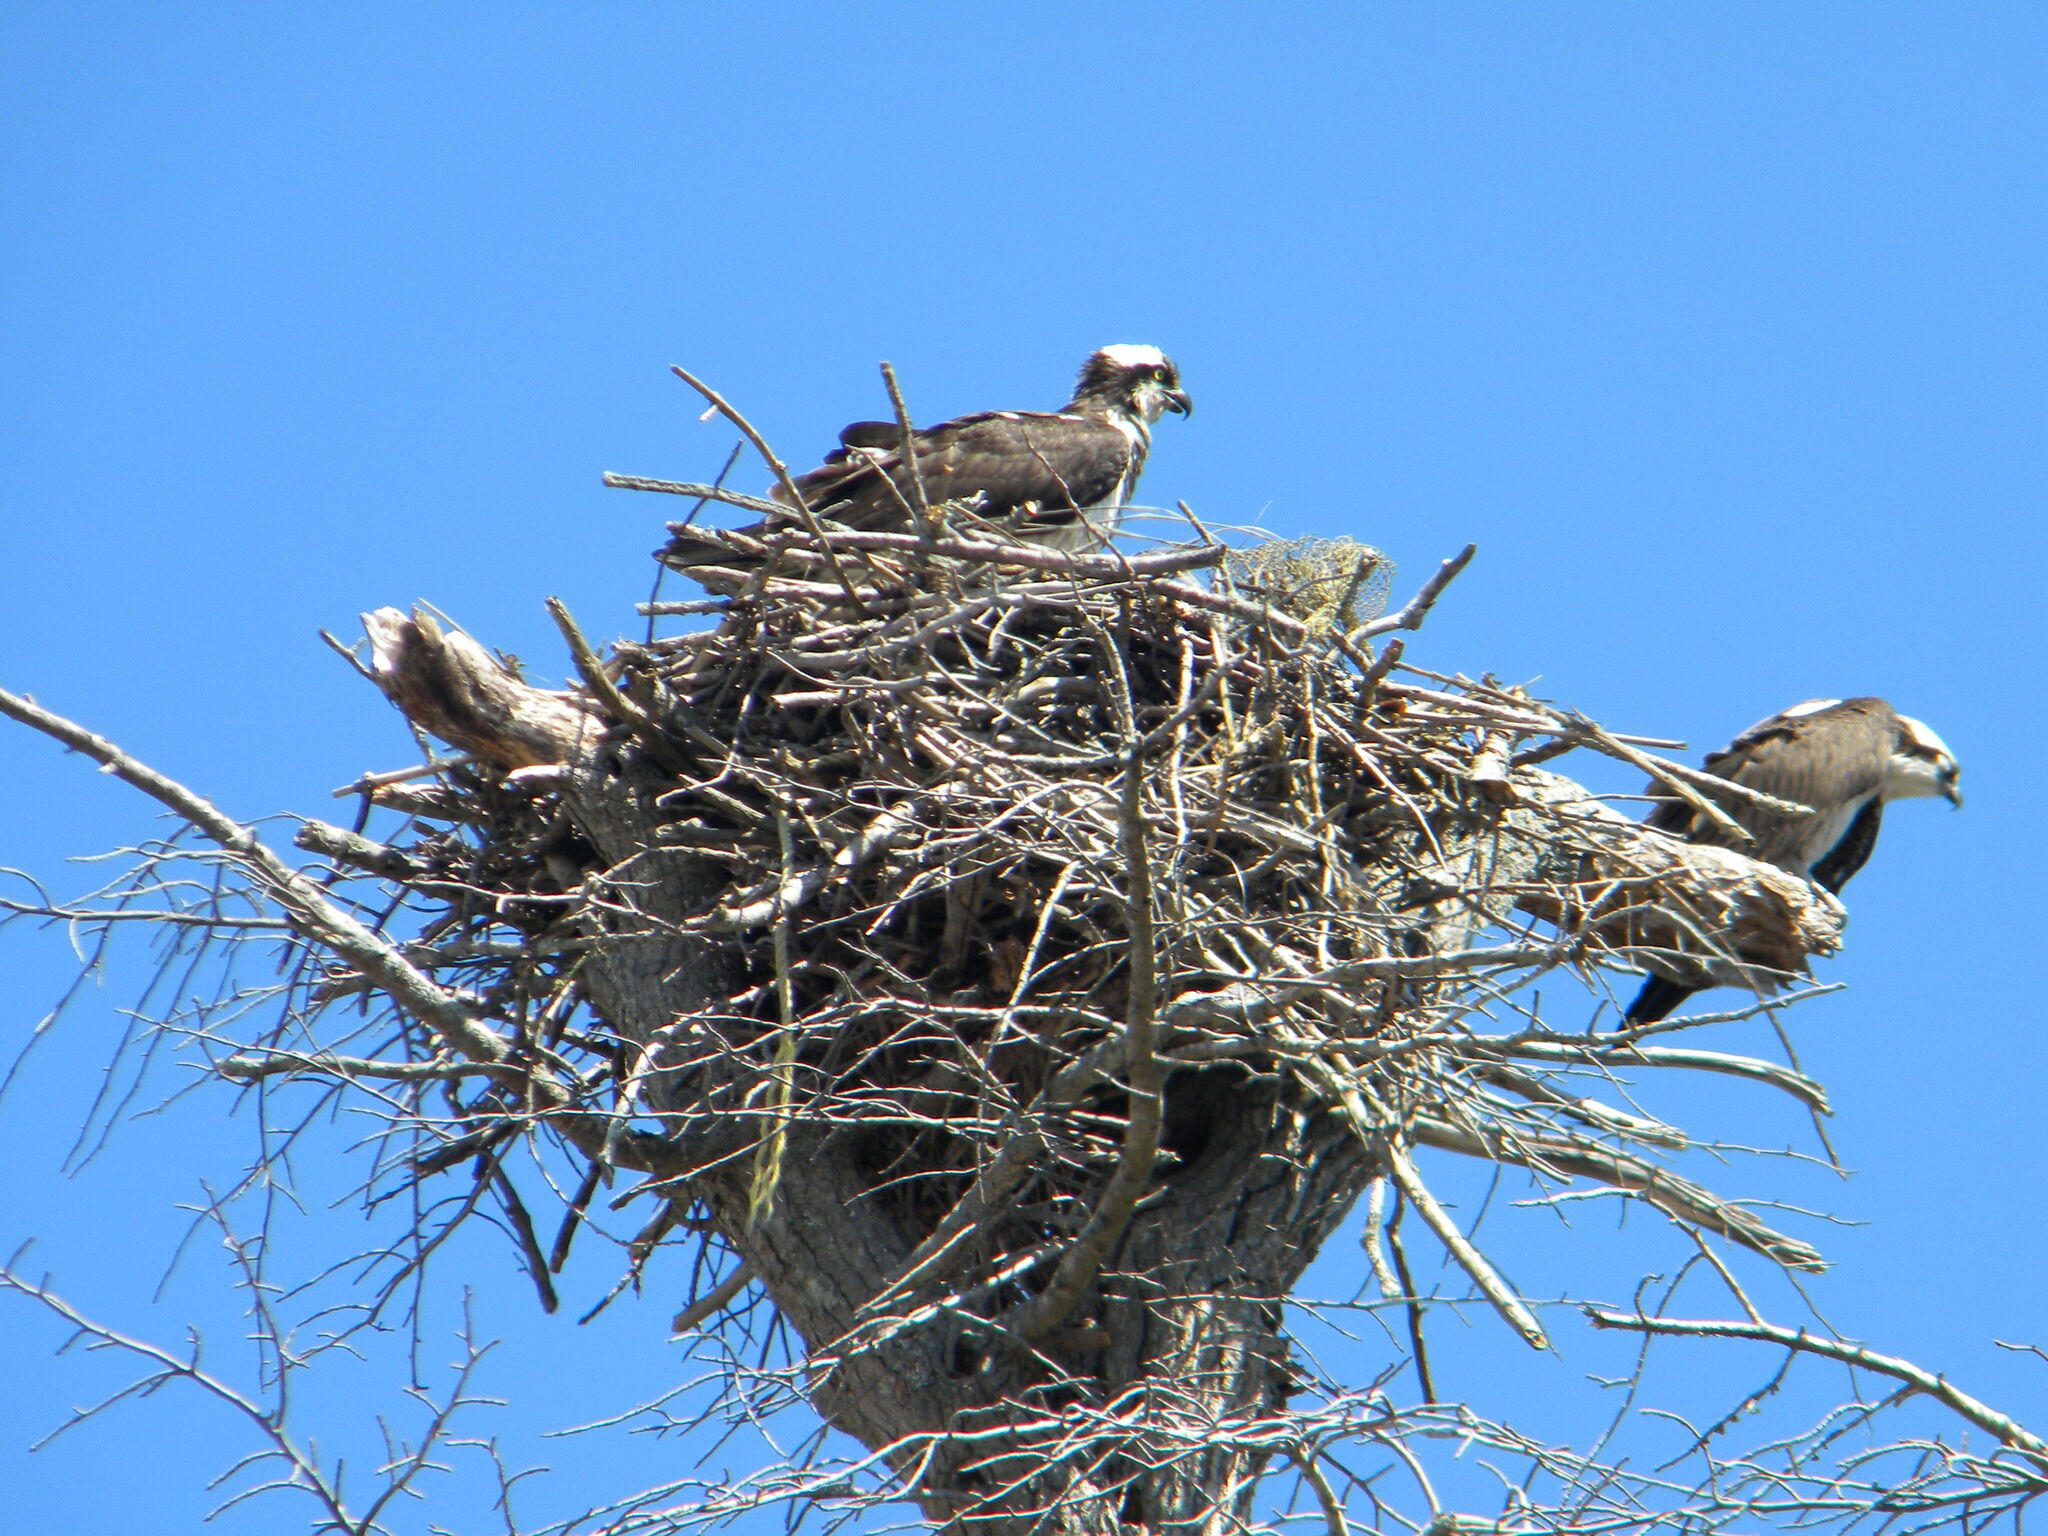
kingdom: Animalia
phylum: Chordata
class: Aves
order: Accipitriformes
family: Pandionidae
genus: Pandion
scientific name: Pandion haliaetus
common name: Osprey
